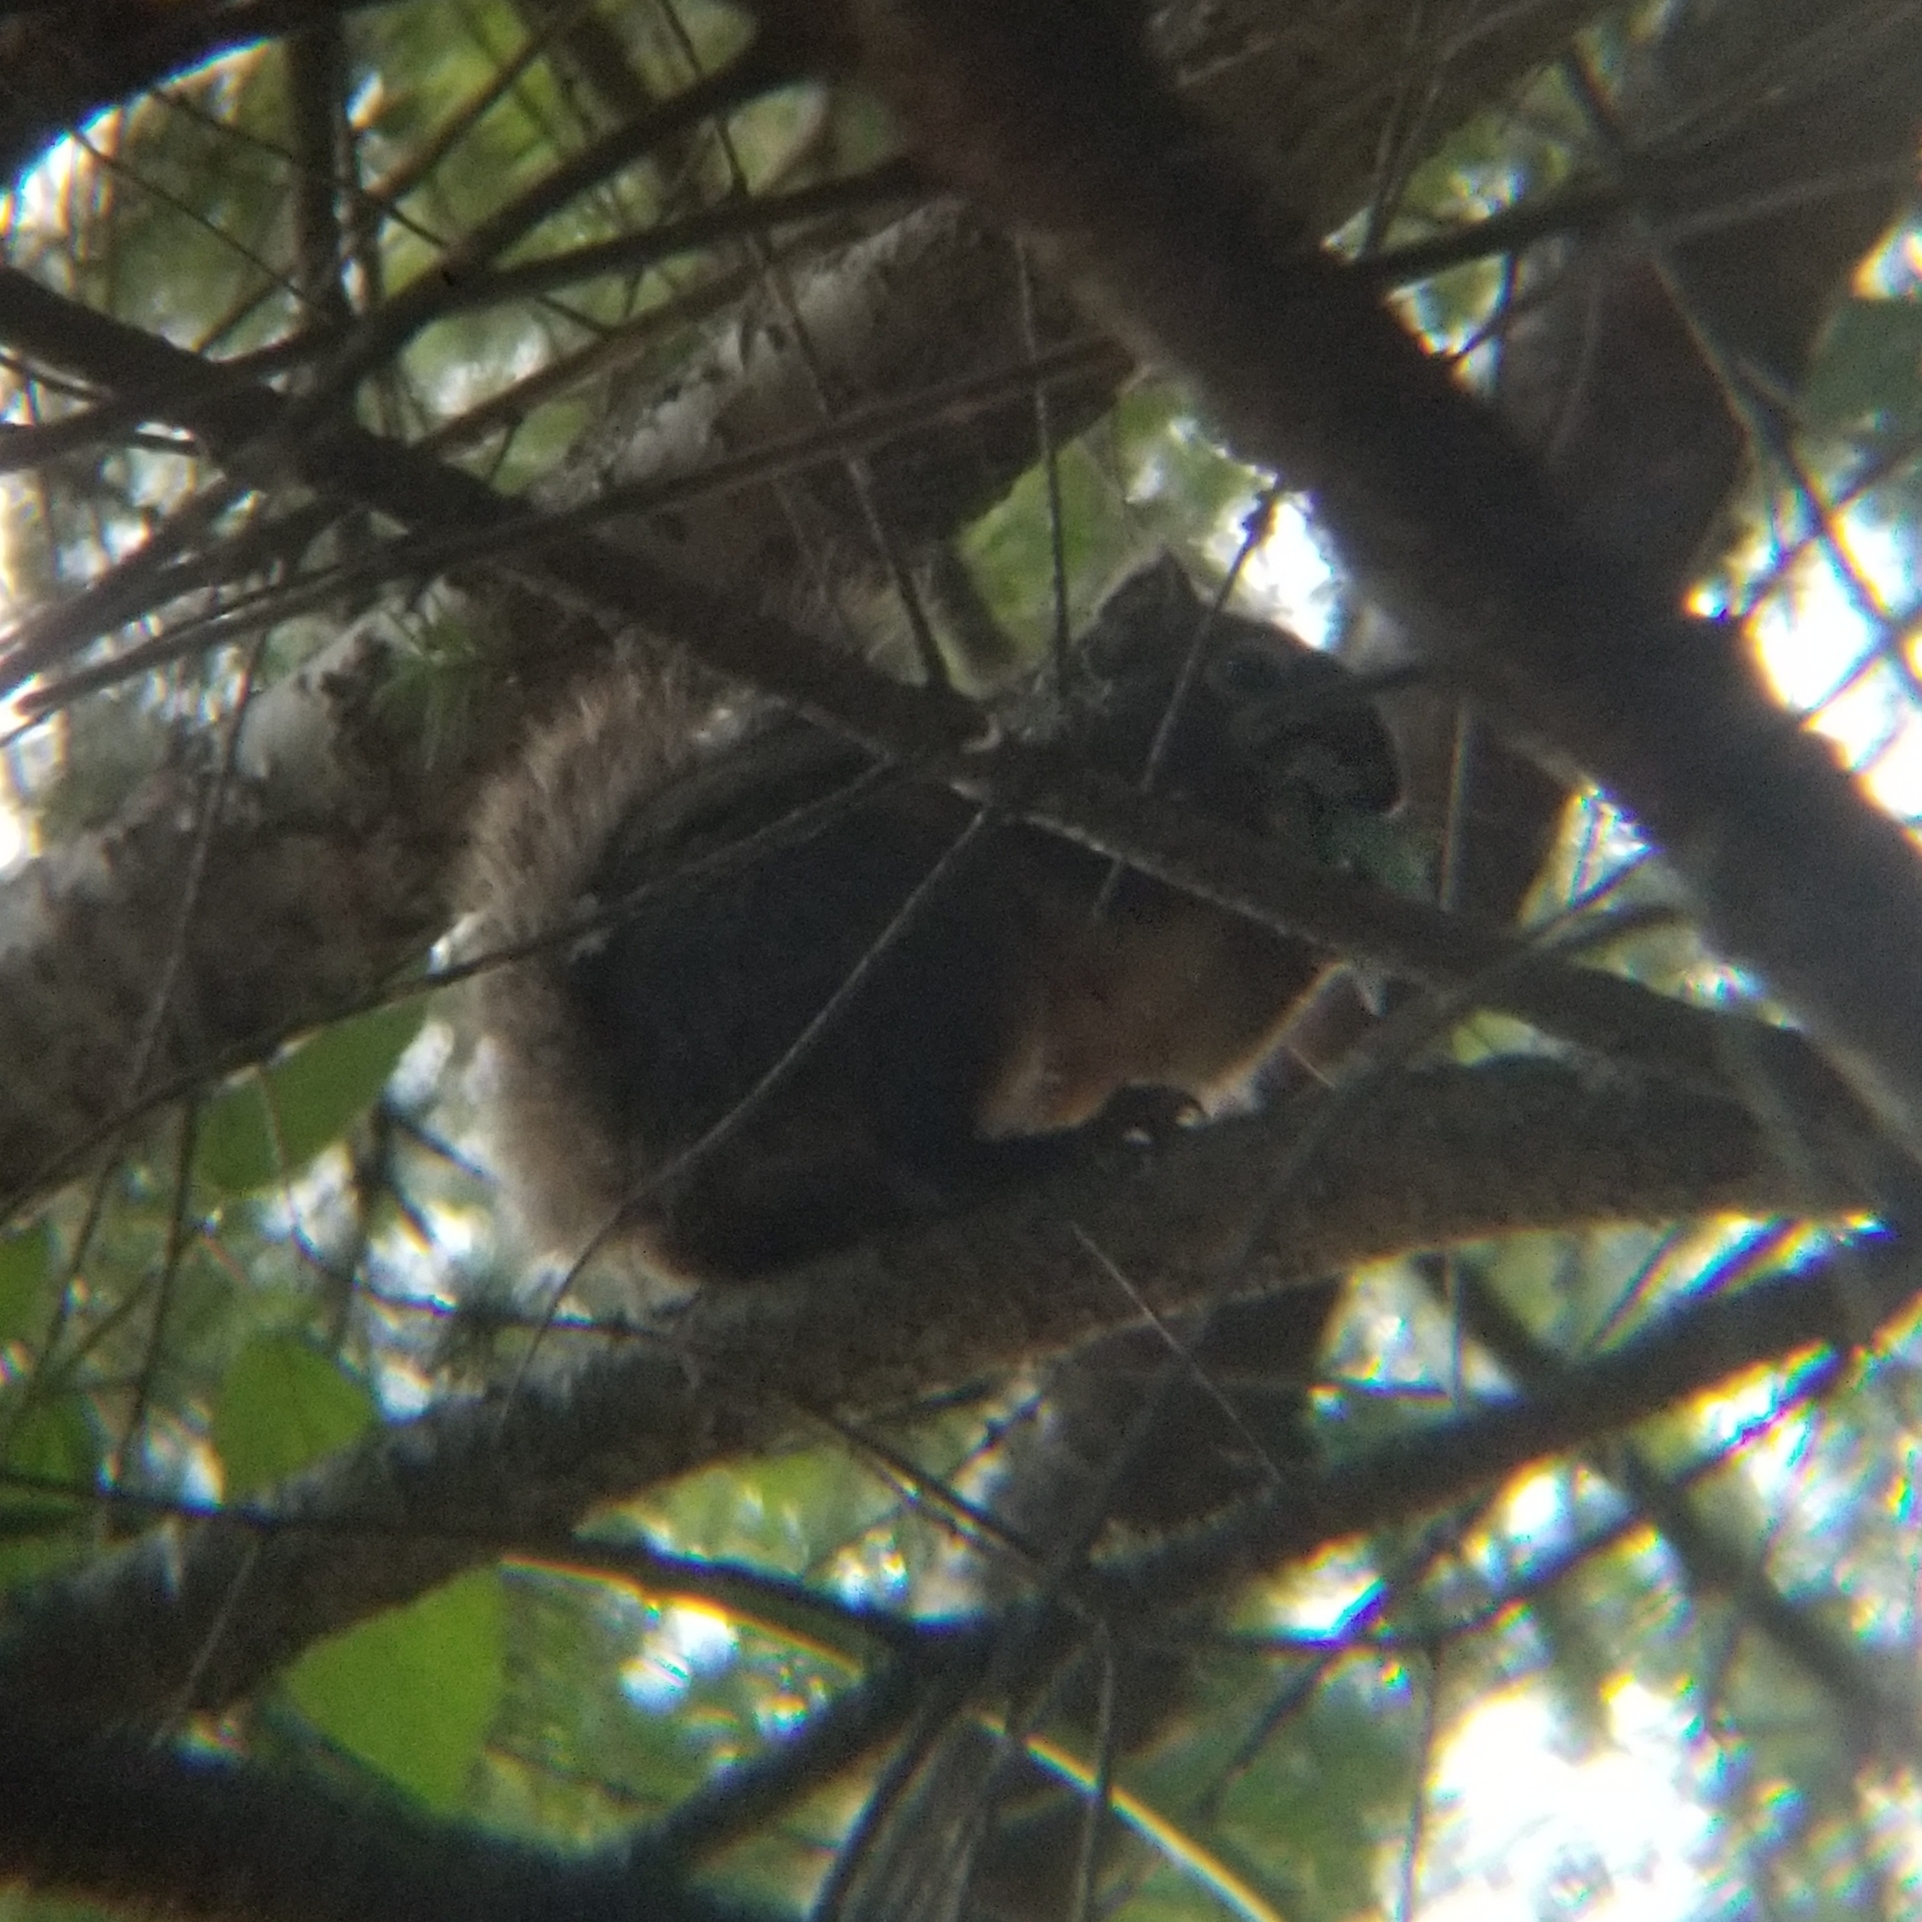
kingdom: Animalia
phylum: Chordata
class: Mammalia
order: Rodentia
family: Sciuridae
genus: Tamiasciurus
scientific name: Tamiasciurus douglasii
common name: Douglas's squirrel
